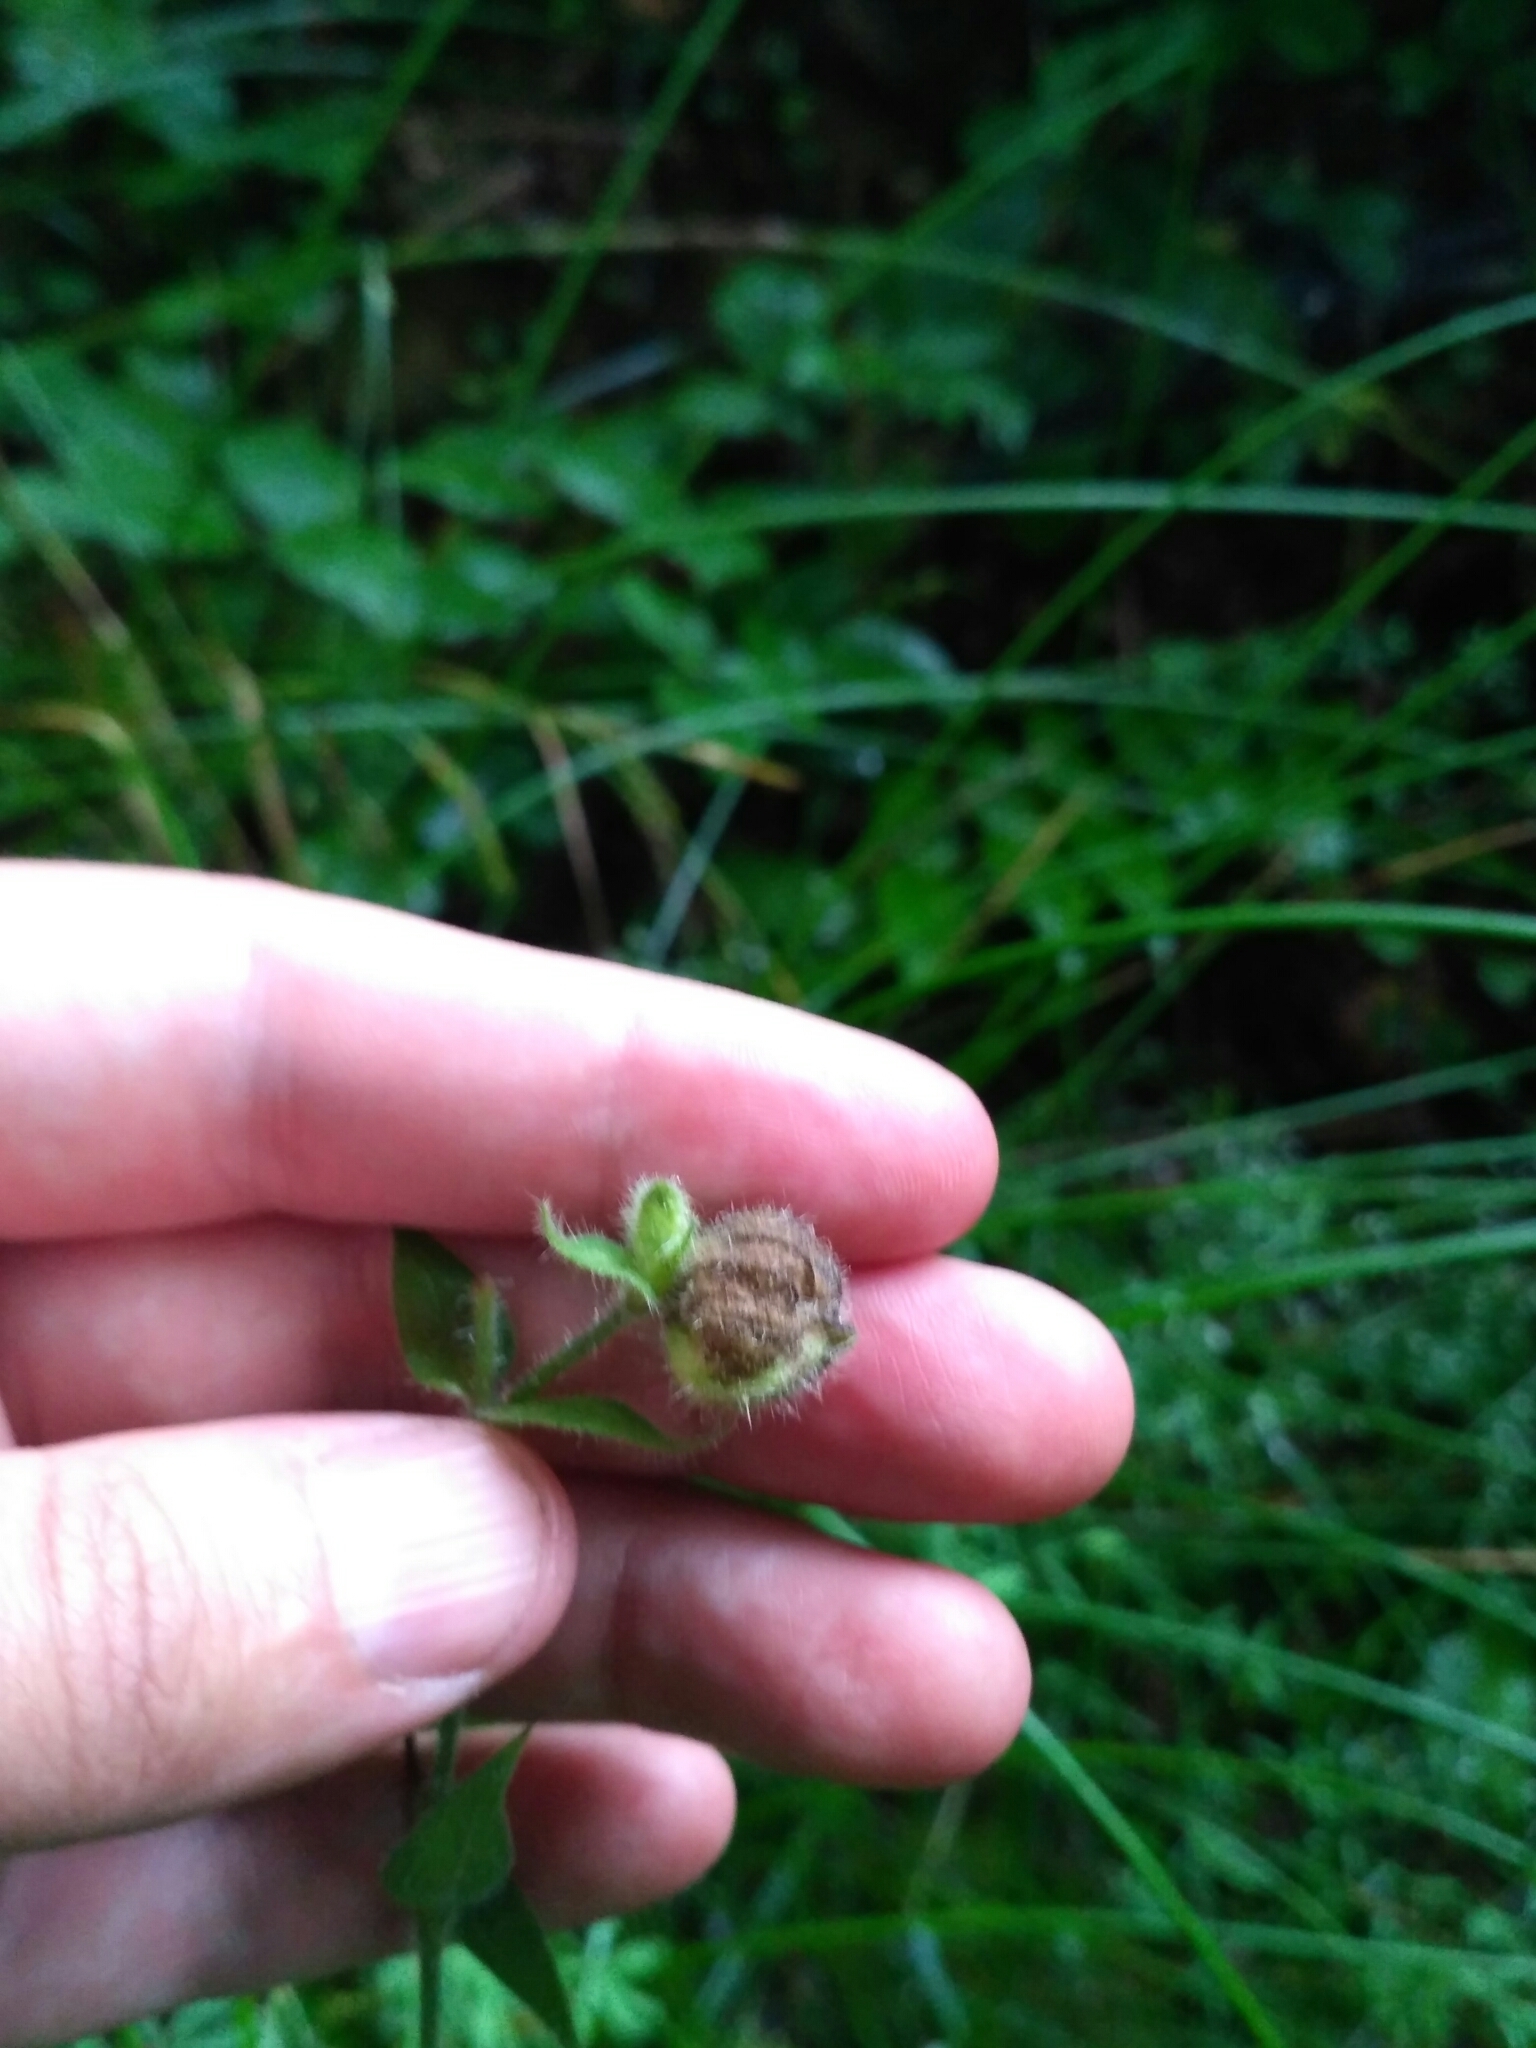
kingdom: Plantae
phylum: Tracheophyta
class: Magnoliopsida
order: Caryophyllales
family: Caryophyllaceae
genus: Silene
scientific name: Silene dioica
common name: Red campion
